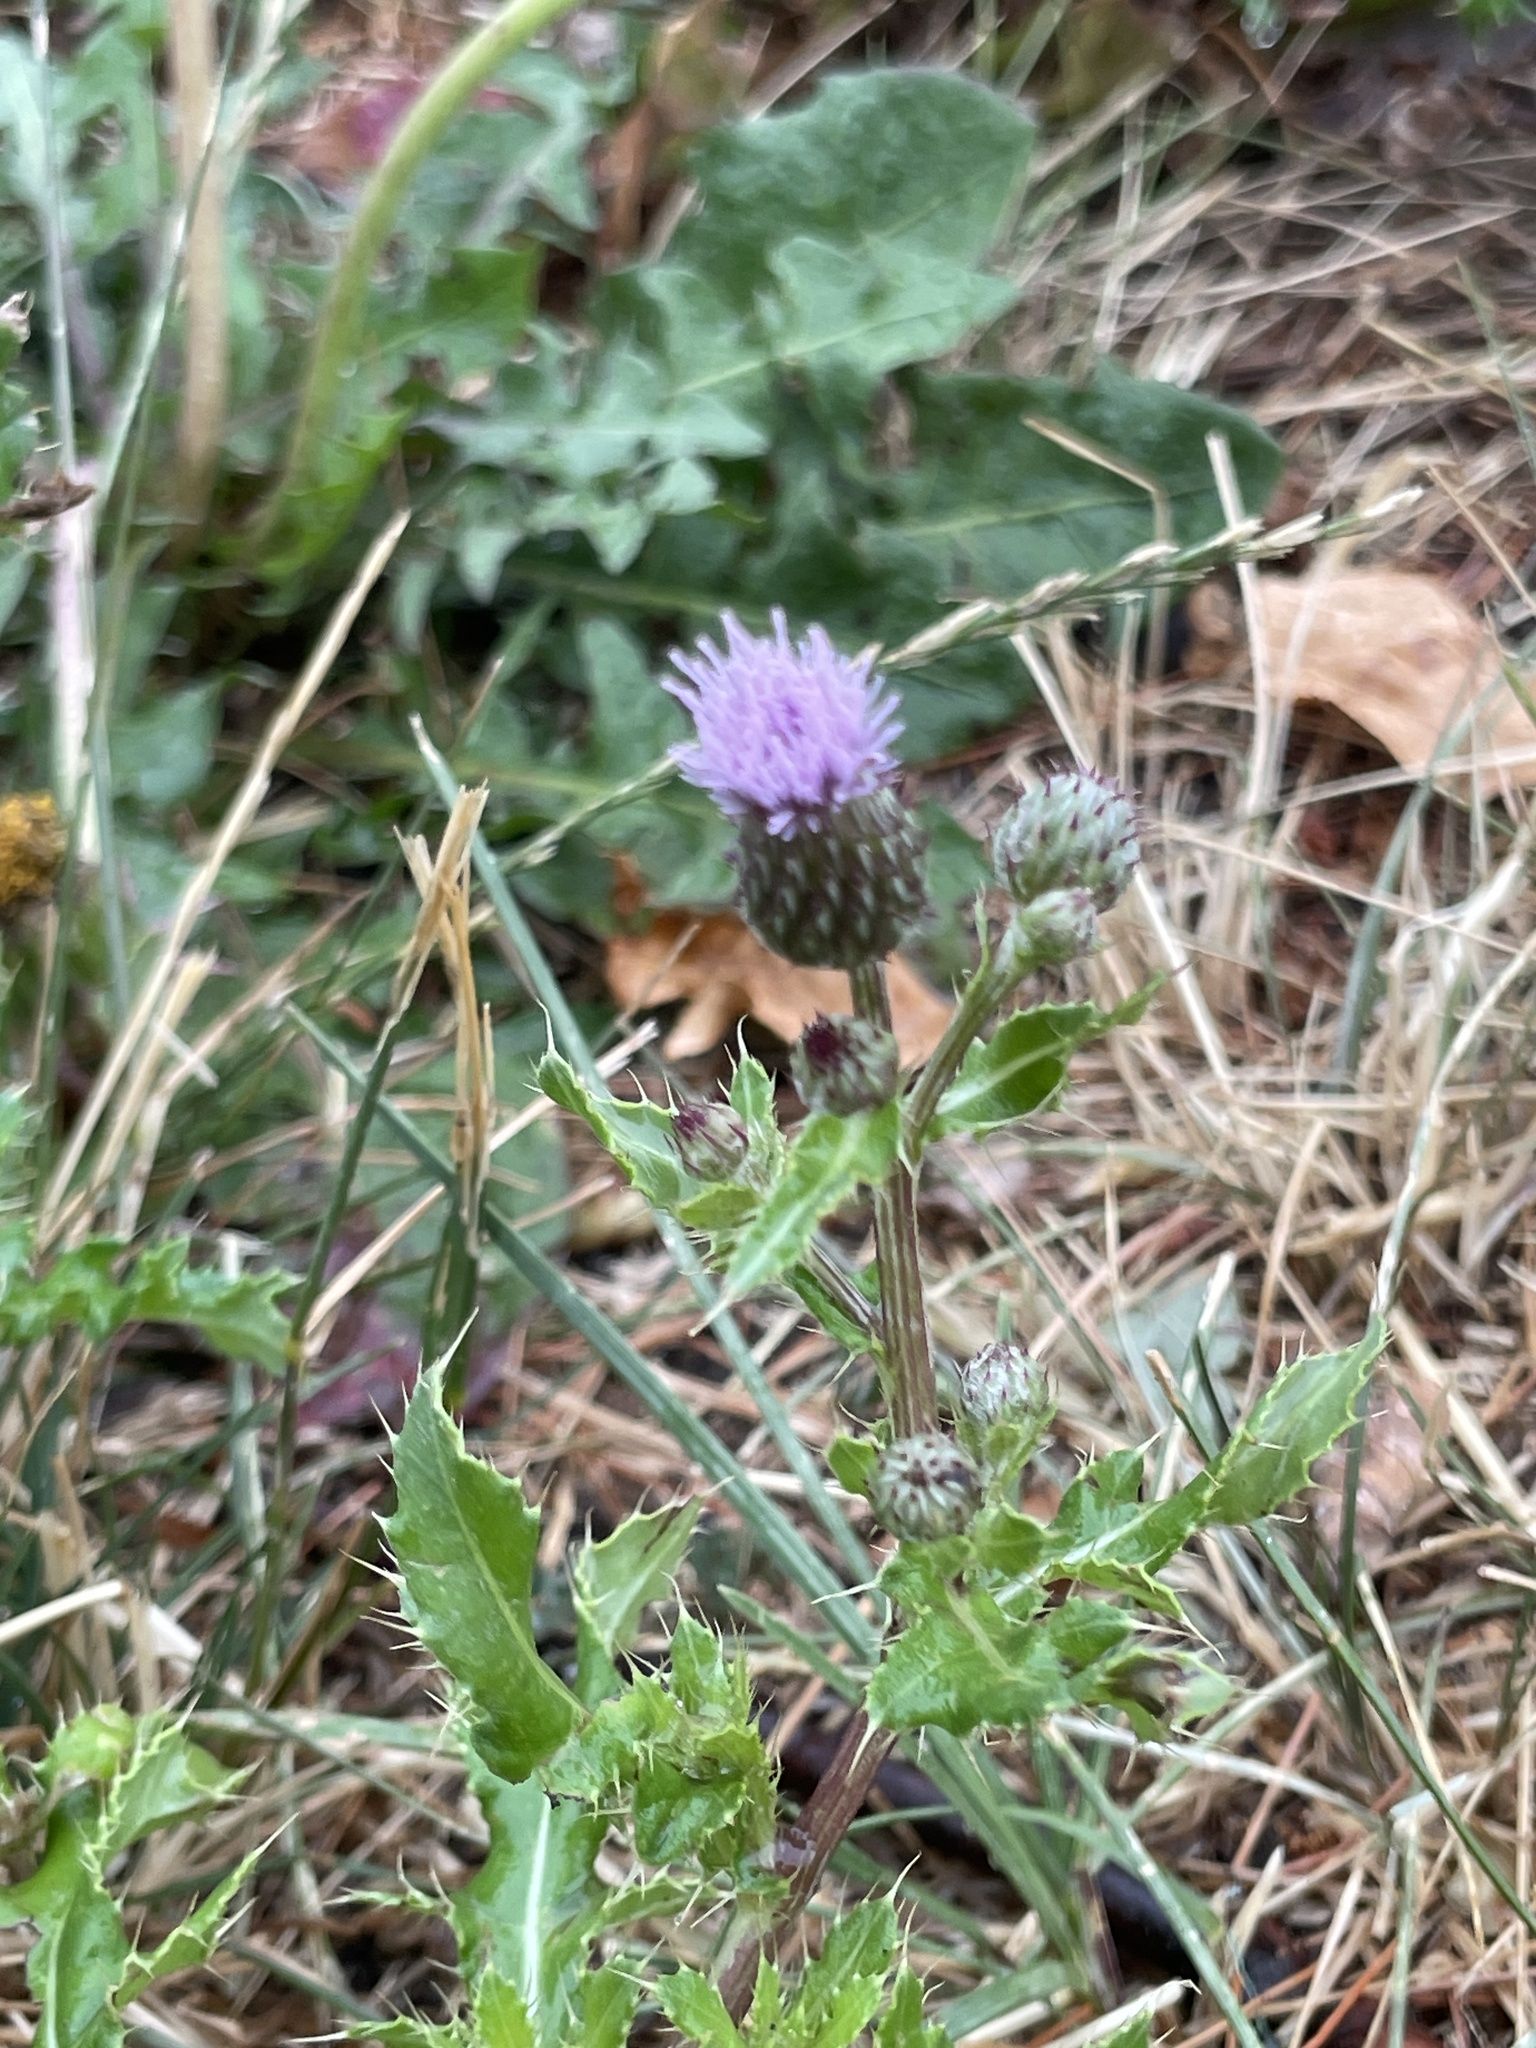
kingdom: Plantae
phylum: Tracheophyta
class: Magnoliopsida
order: Asterales
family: Asteraceae
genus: Cirsium
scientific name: Cirsium arvense
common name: Creeping thistle
